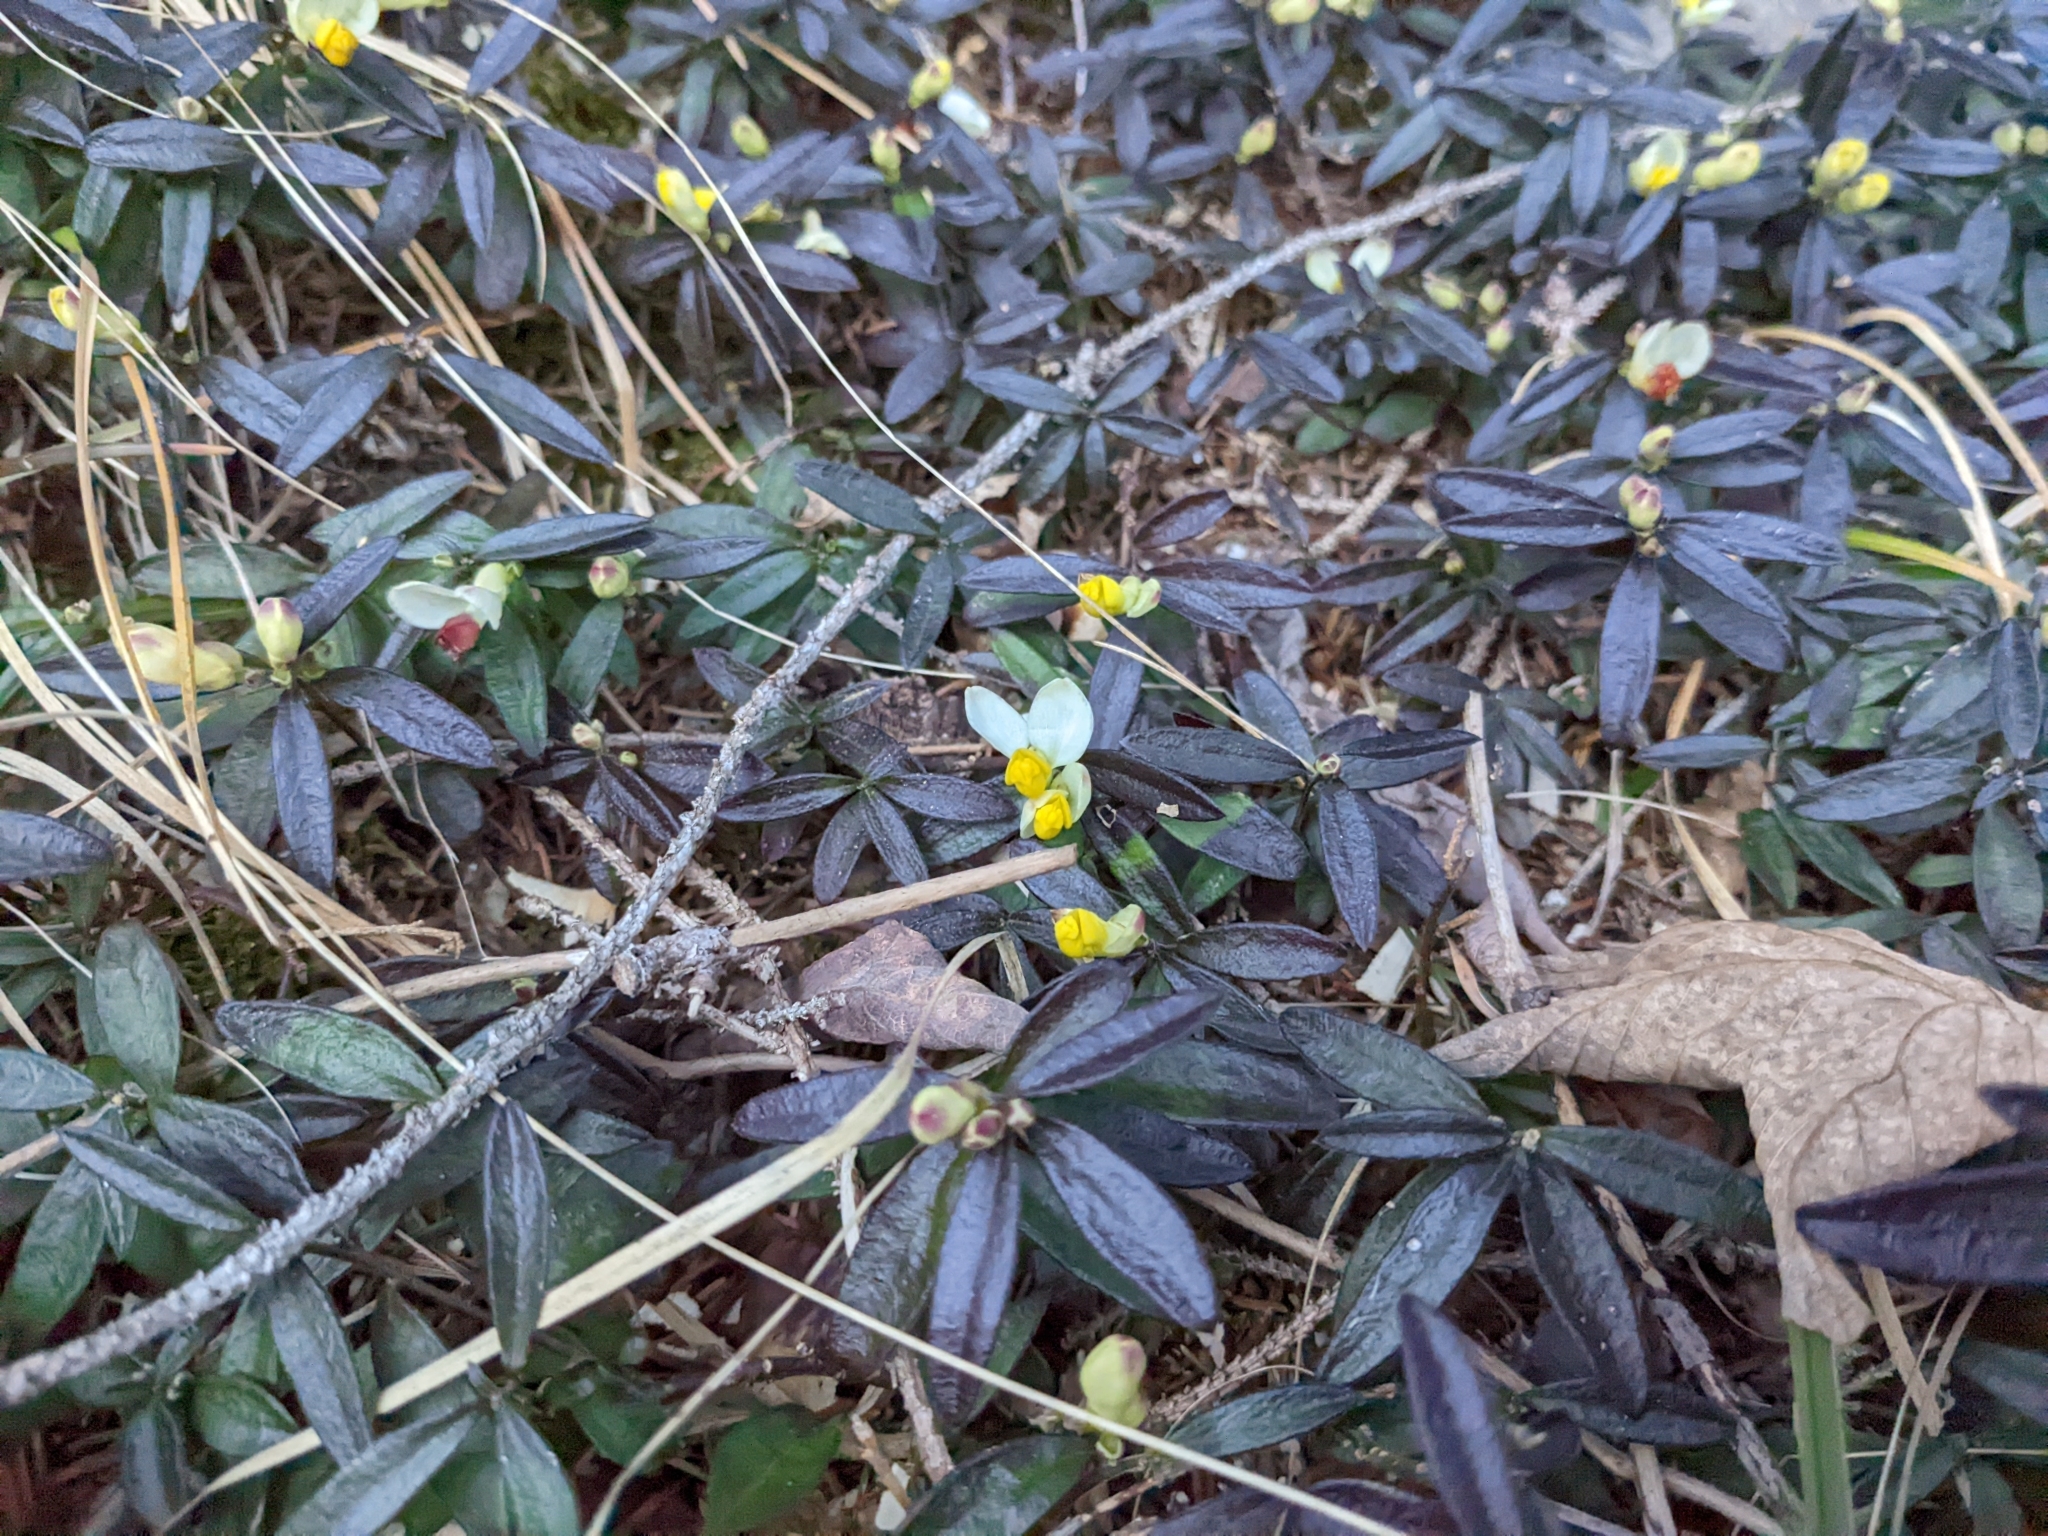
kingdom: Plantae
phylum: Tracheophyta
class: Magnoliopsida
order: Fabales
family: Polygalaceae
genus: Polygaloides
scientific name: Polygaloides chamaebuxus
